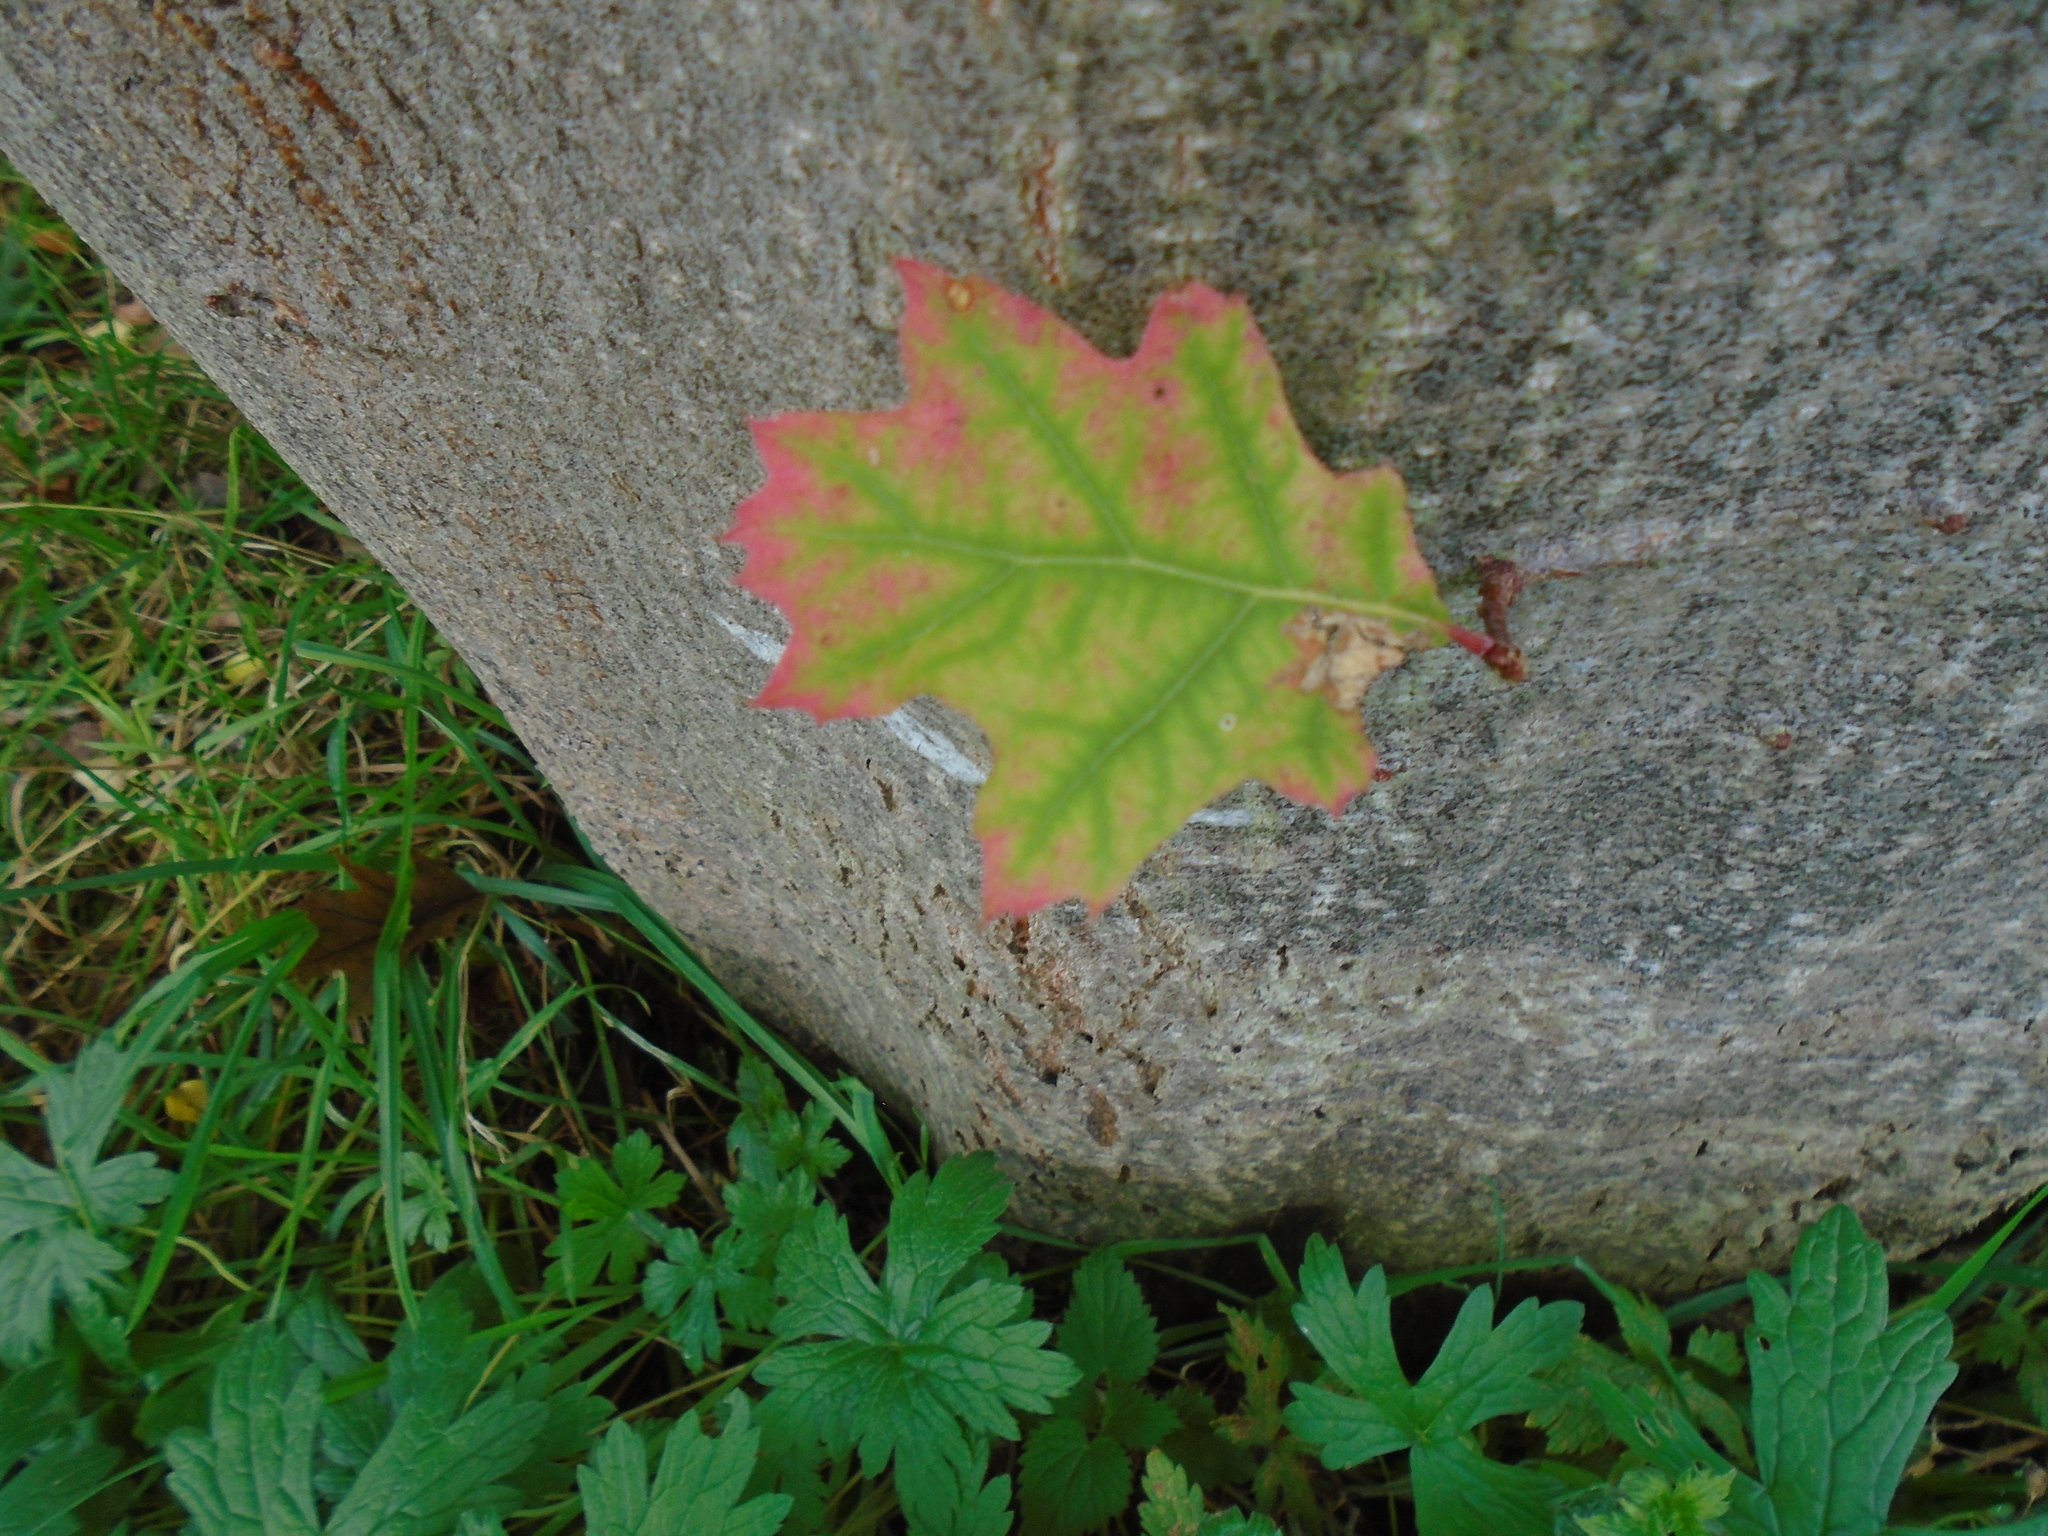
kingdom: Plantae
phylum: Tracheophyta
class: Magnoliopsida
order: Fagales
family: Fagaceae
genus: Quercus
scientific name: Quercus rubra
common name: Red oak
